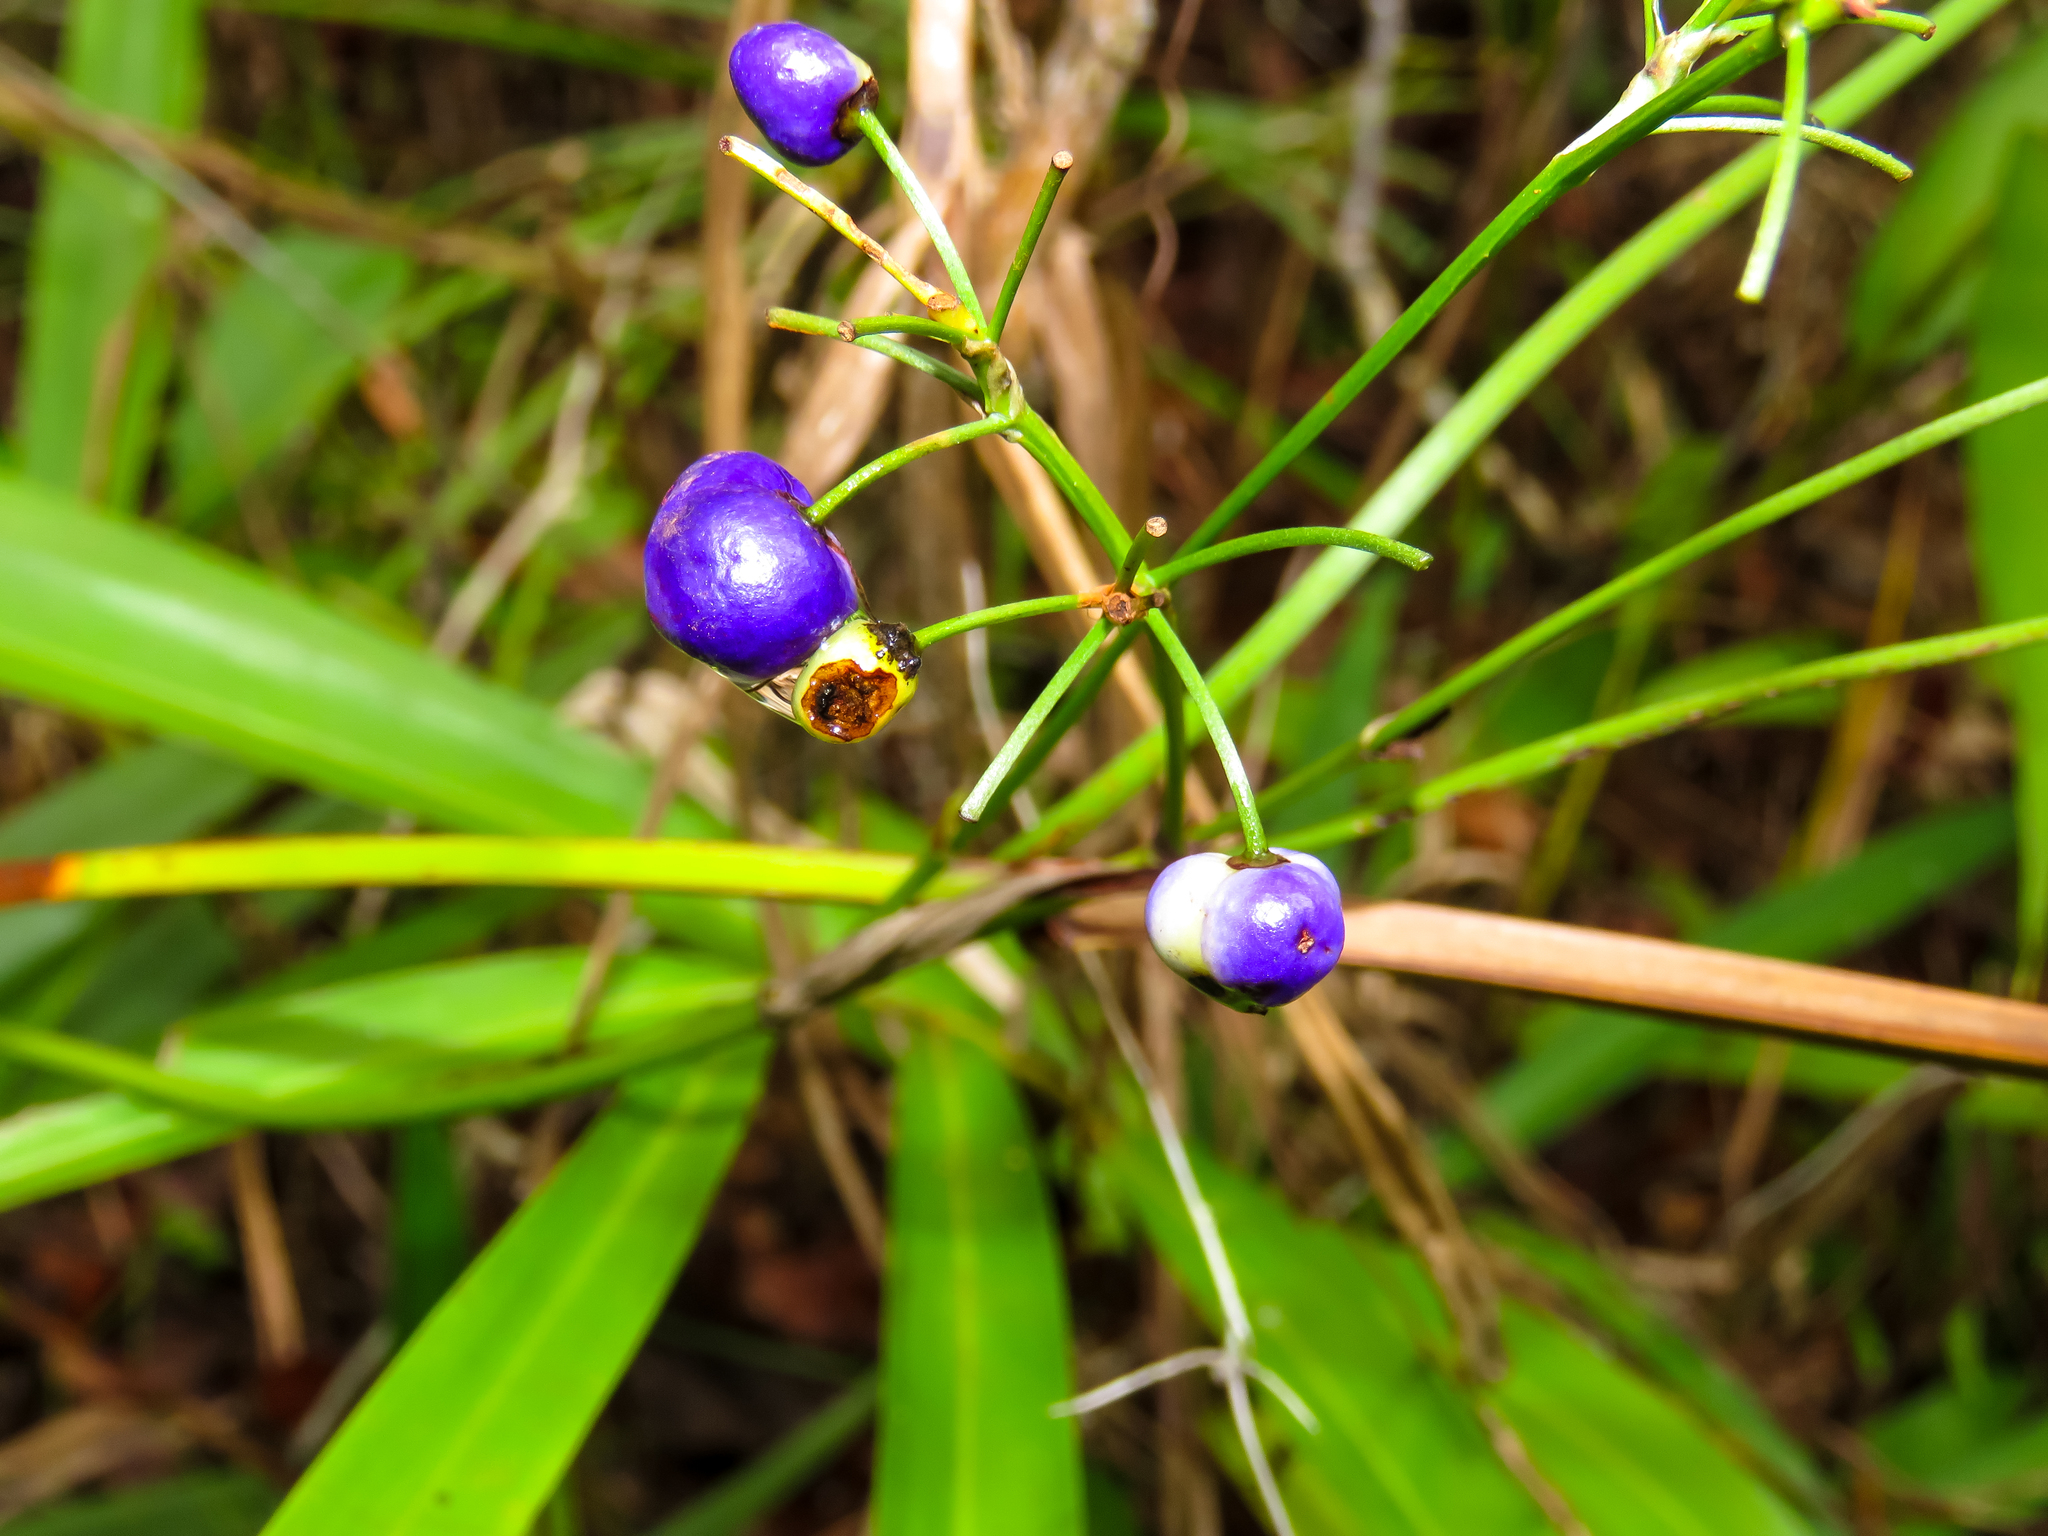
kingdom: Plantae
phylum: Tracheophyta
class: Liliopsida
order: Asparagales
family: Asphodelaceae
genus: Dianella
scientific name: Dianella ensifolia
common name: New zealand lilyplant
